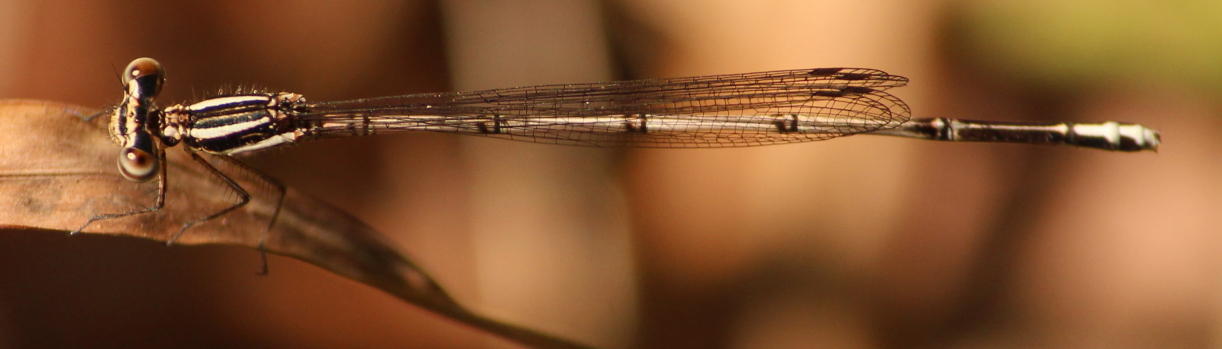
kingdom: Animalia
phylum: Arthropoda
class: Insecta
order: Odonata
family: Platycnemididae
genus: Elattoneura
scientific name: Elattoneura glauca
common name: Common threadtail
